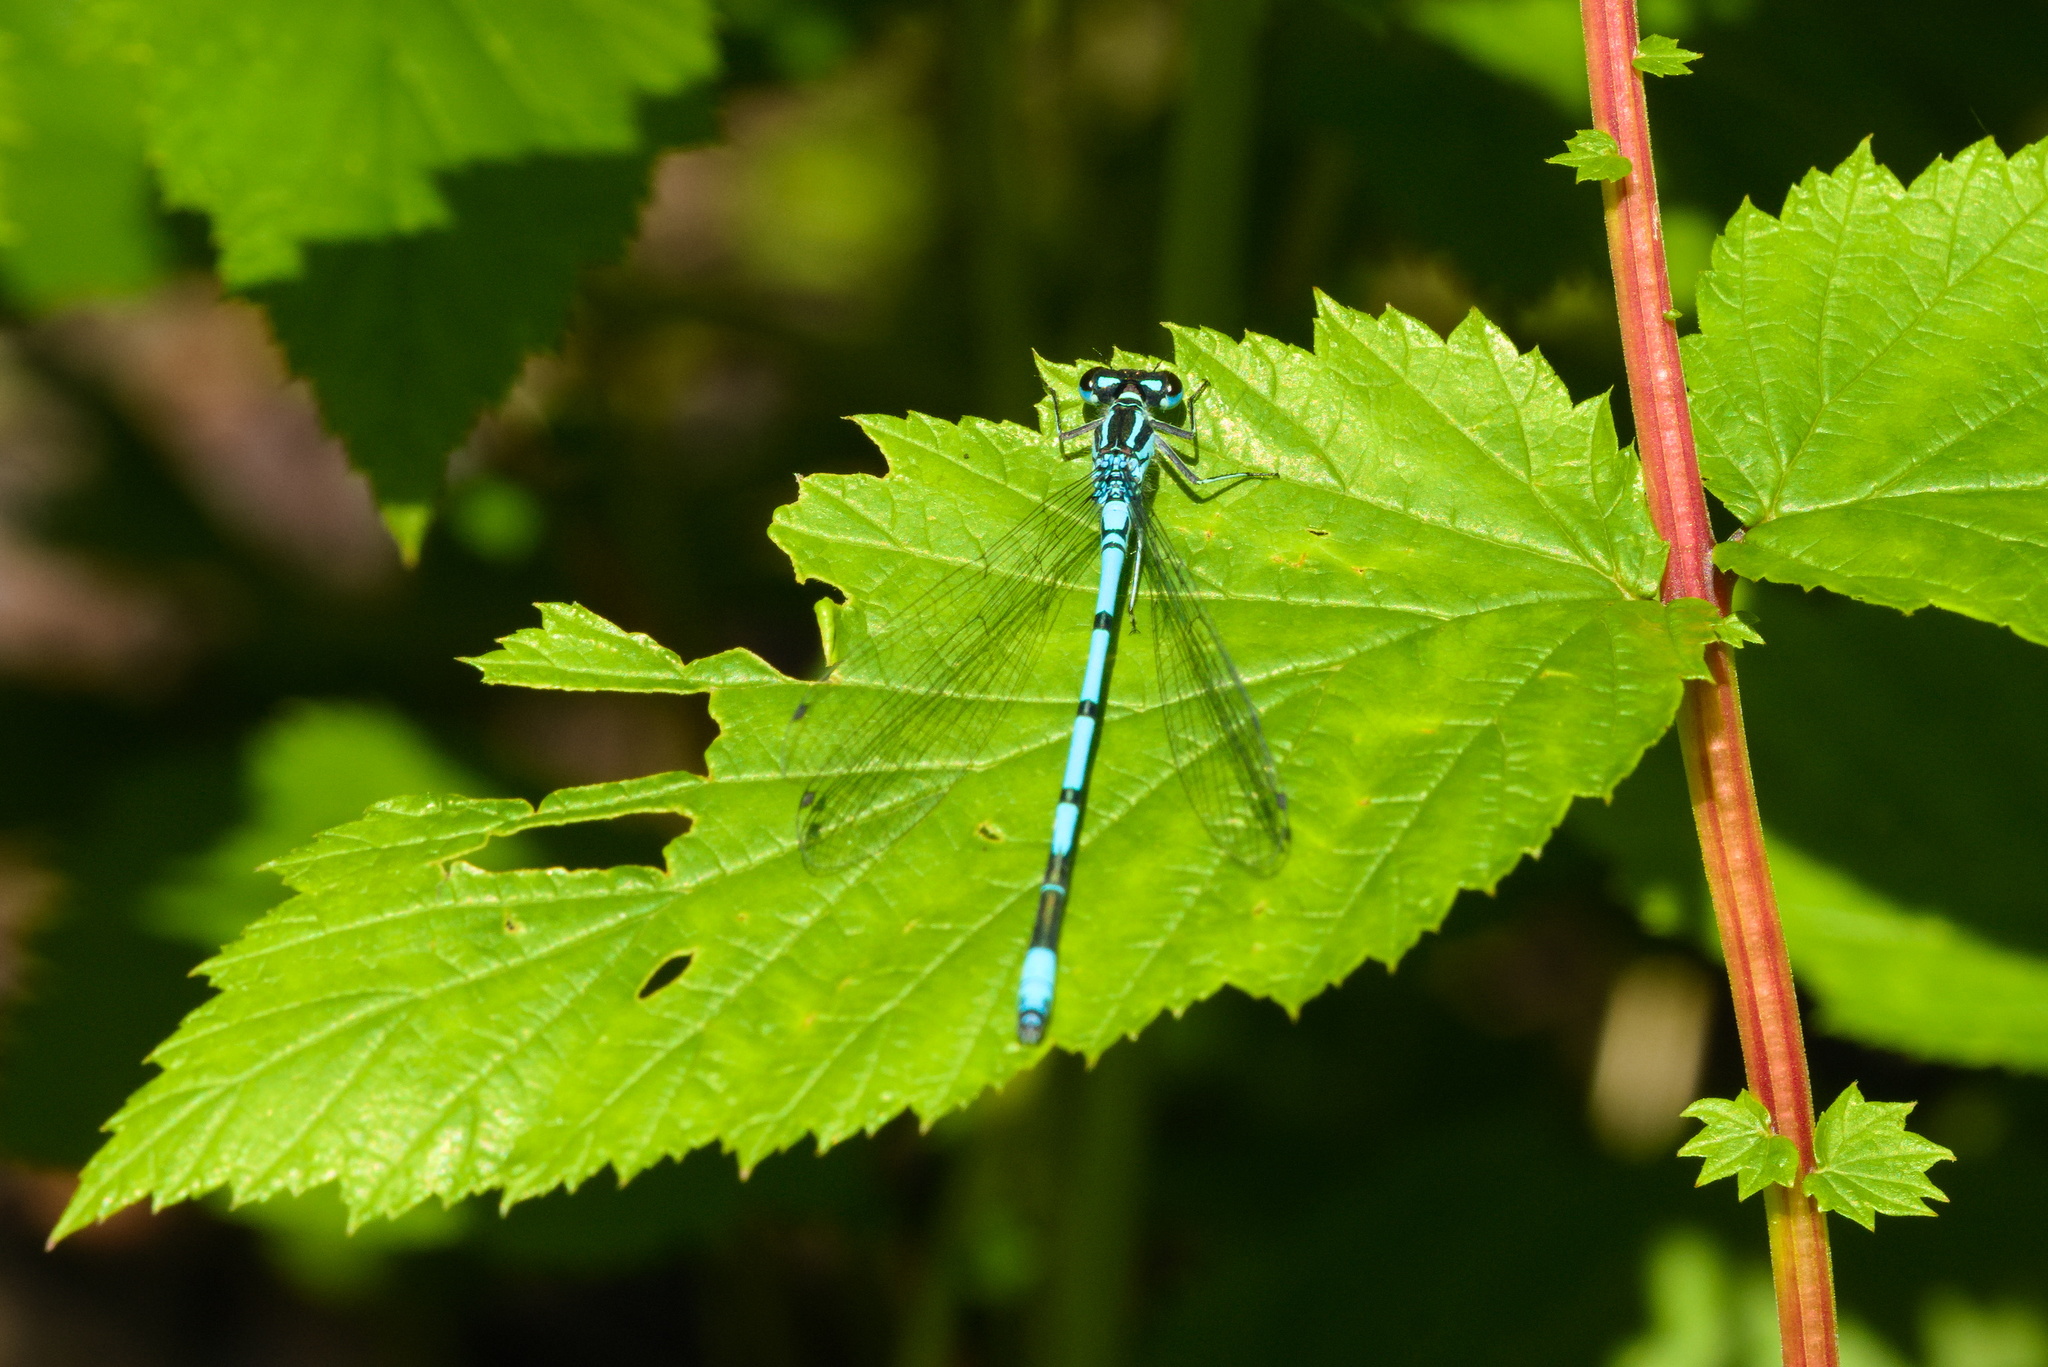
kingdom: Animalia
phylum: Arthropoda
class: Insecta
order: Odonata
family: Coenagrionidae
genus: Coenagrion
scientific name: Coenagrion puella
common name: Azure damselfly
